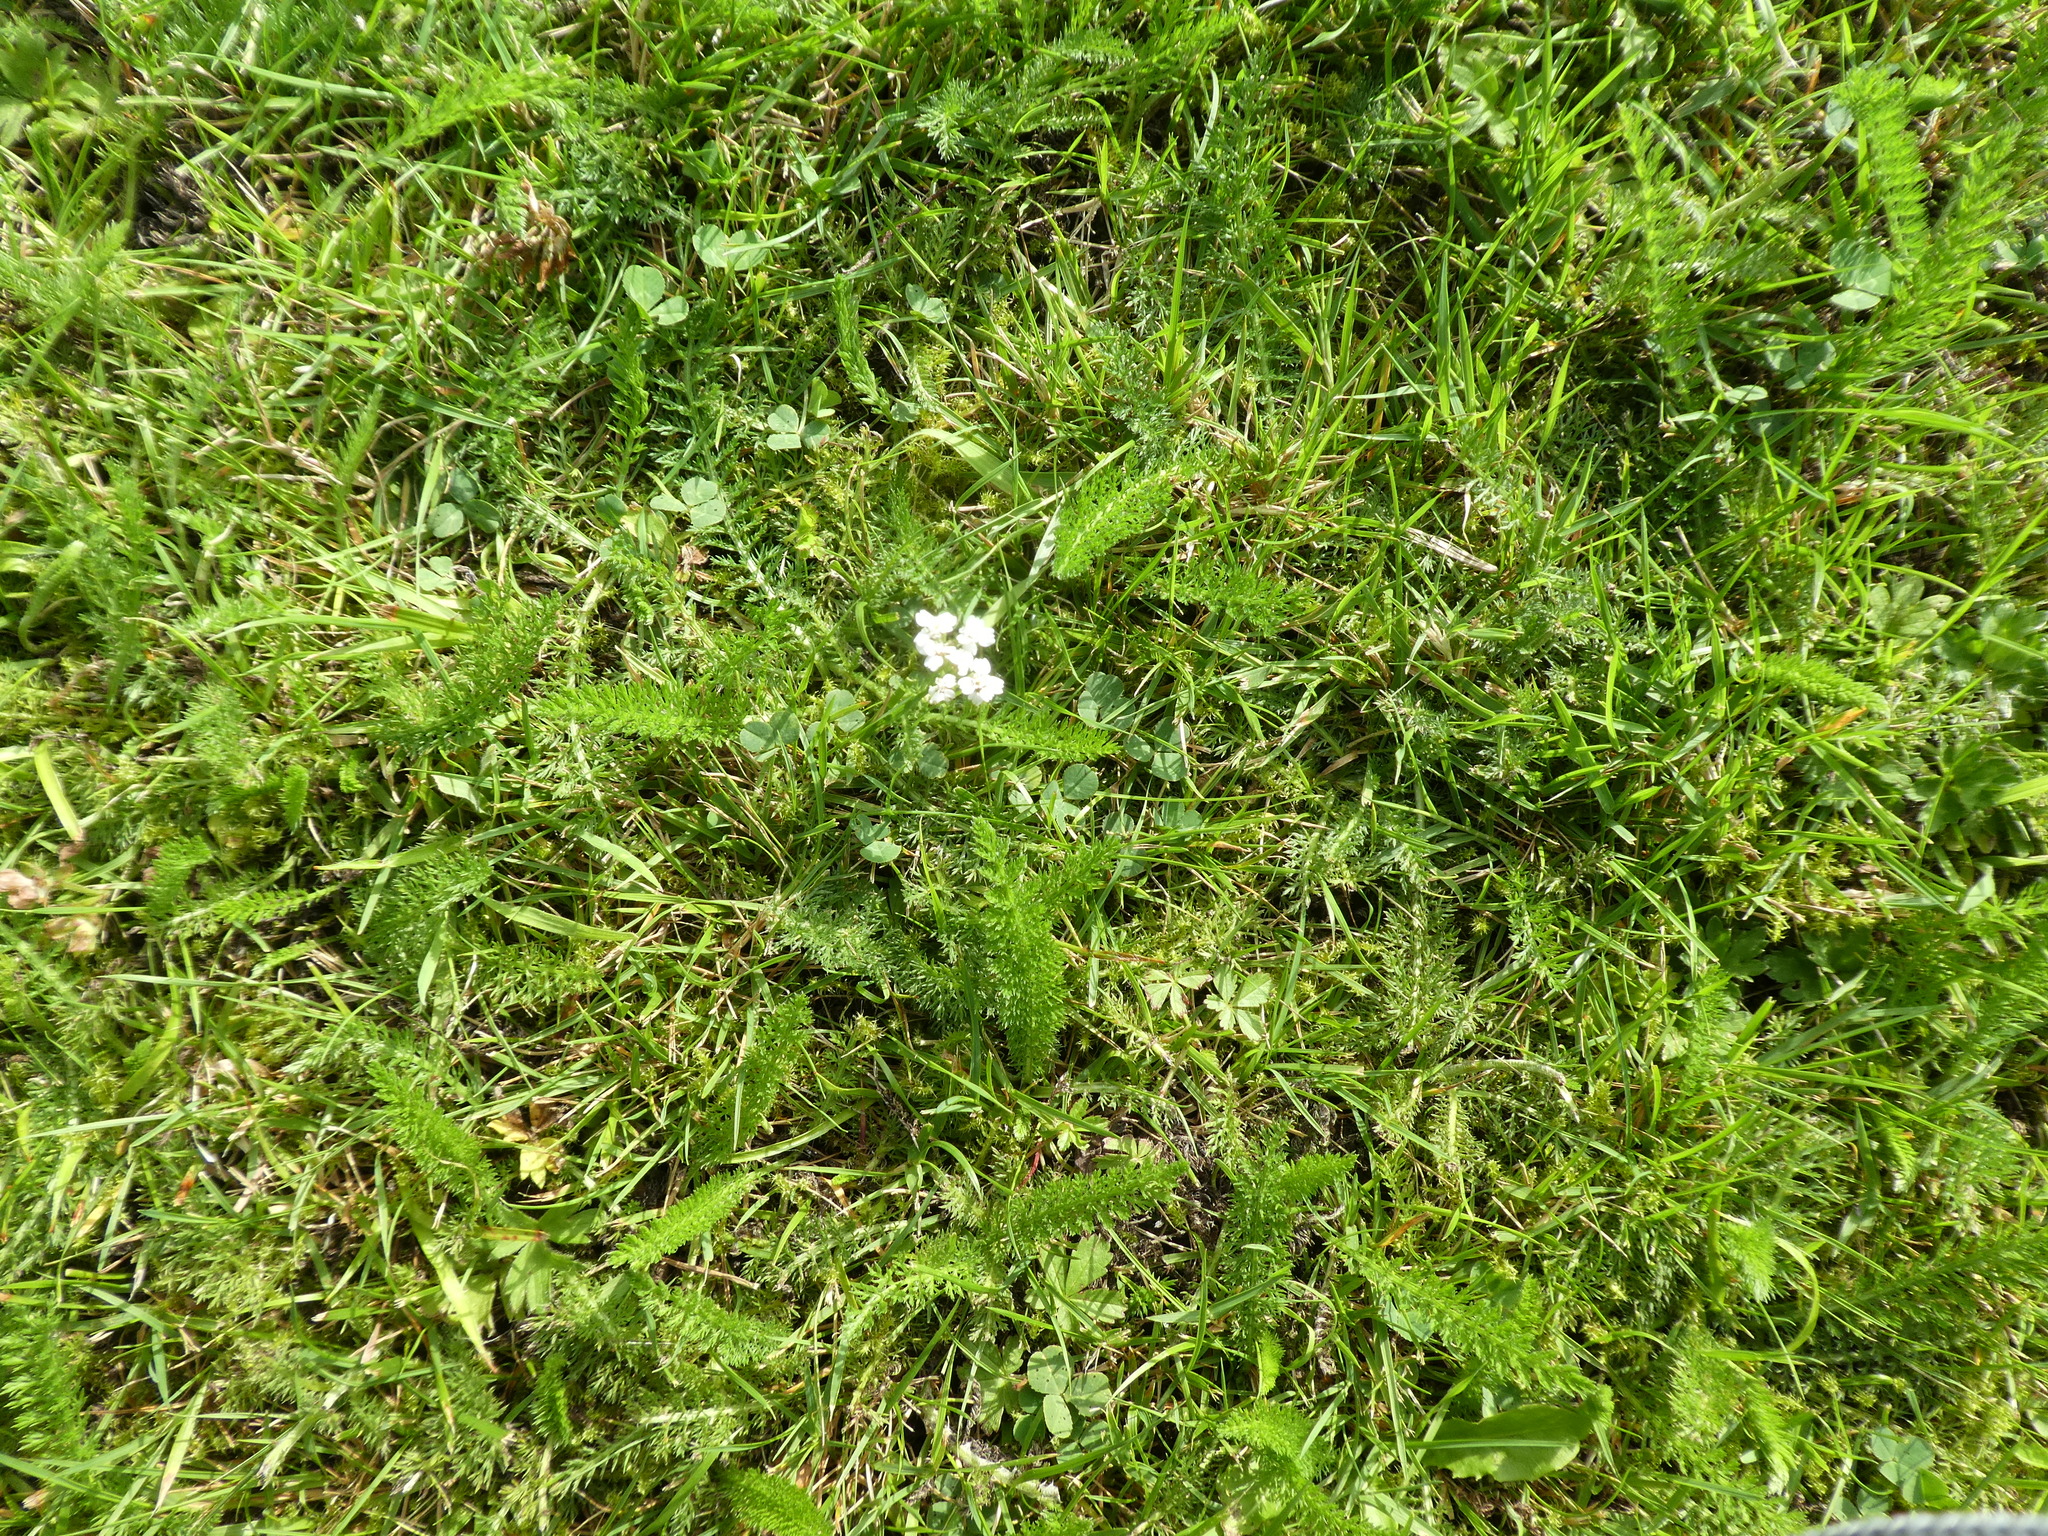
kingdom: Plantae
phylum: Tracheophyta
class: Magnoliopsida
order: Asterales
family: Asteraceae
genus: Achillea
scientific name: Achillea millefolium
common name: Yarrow
